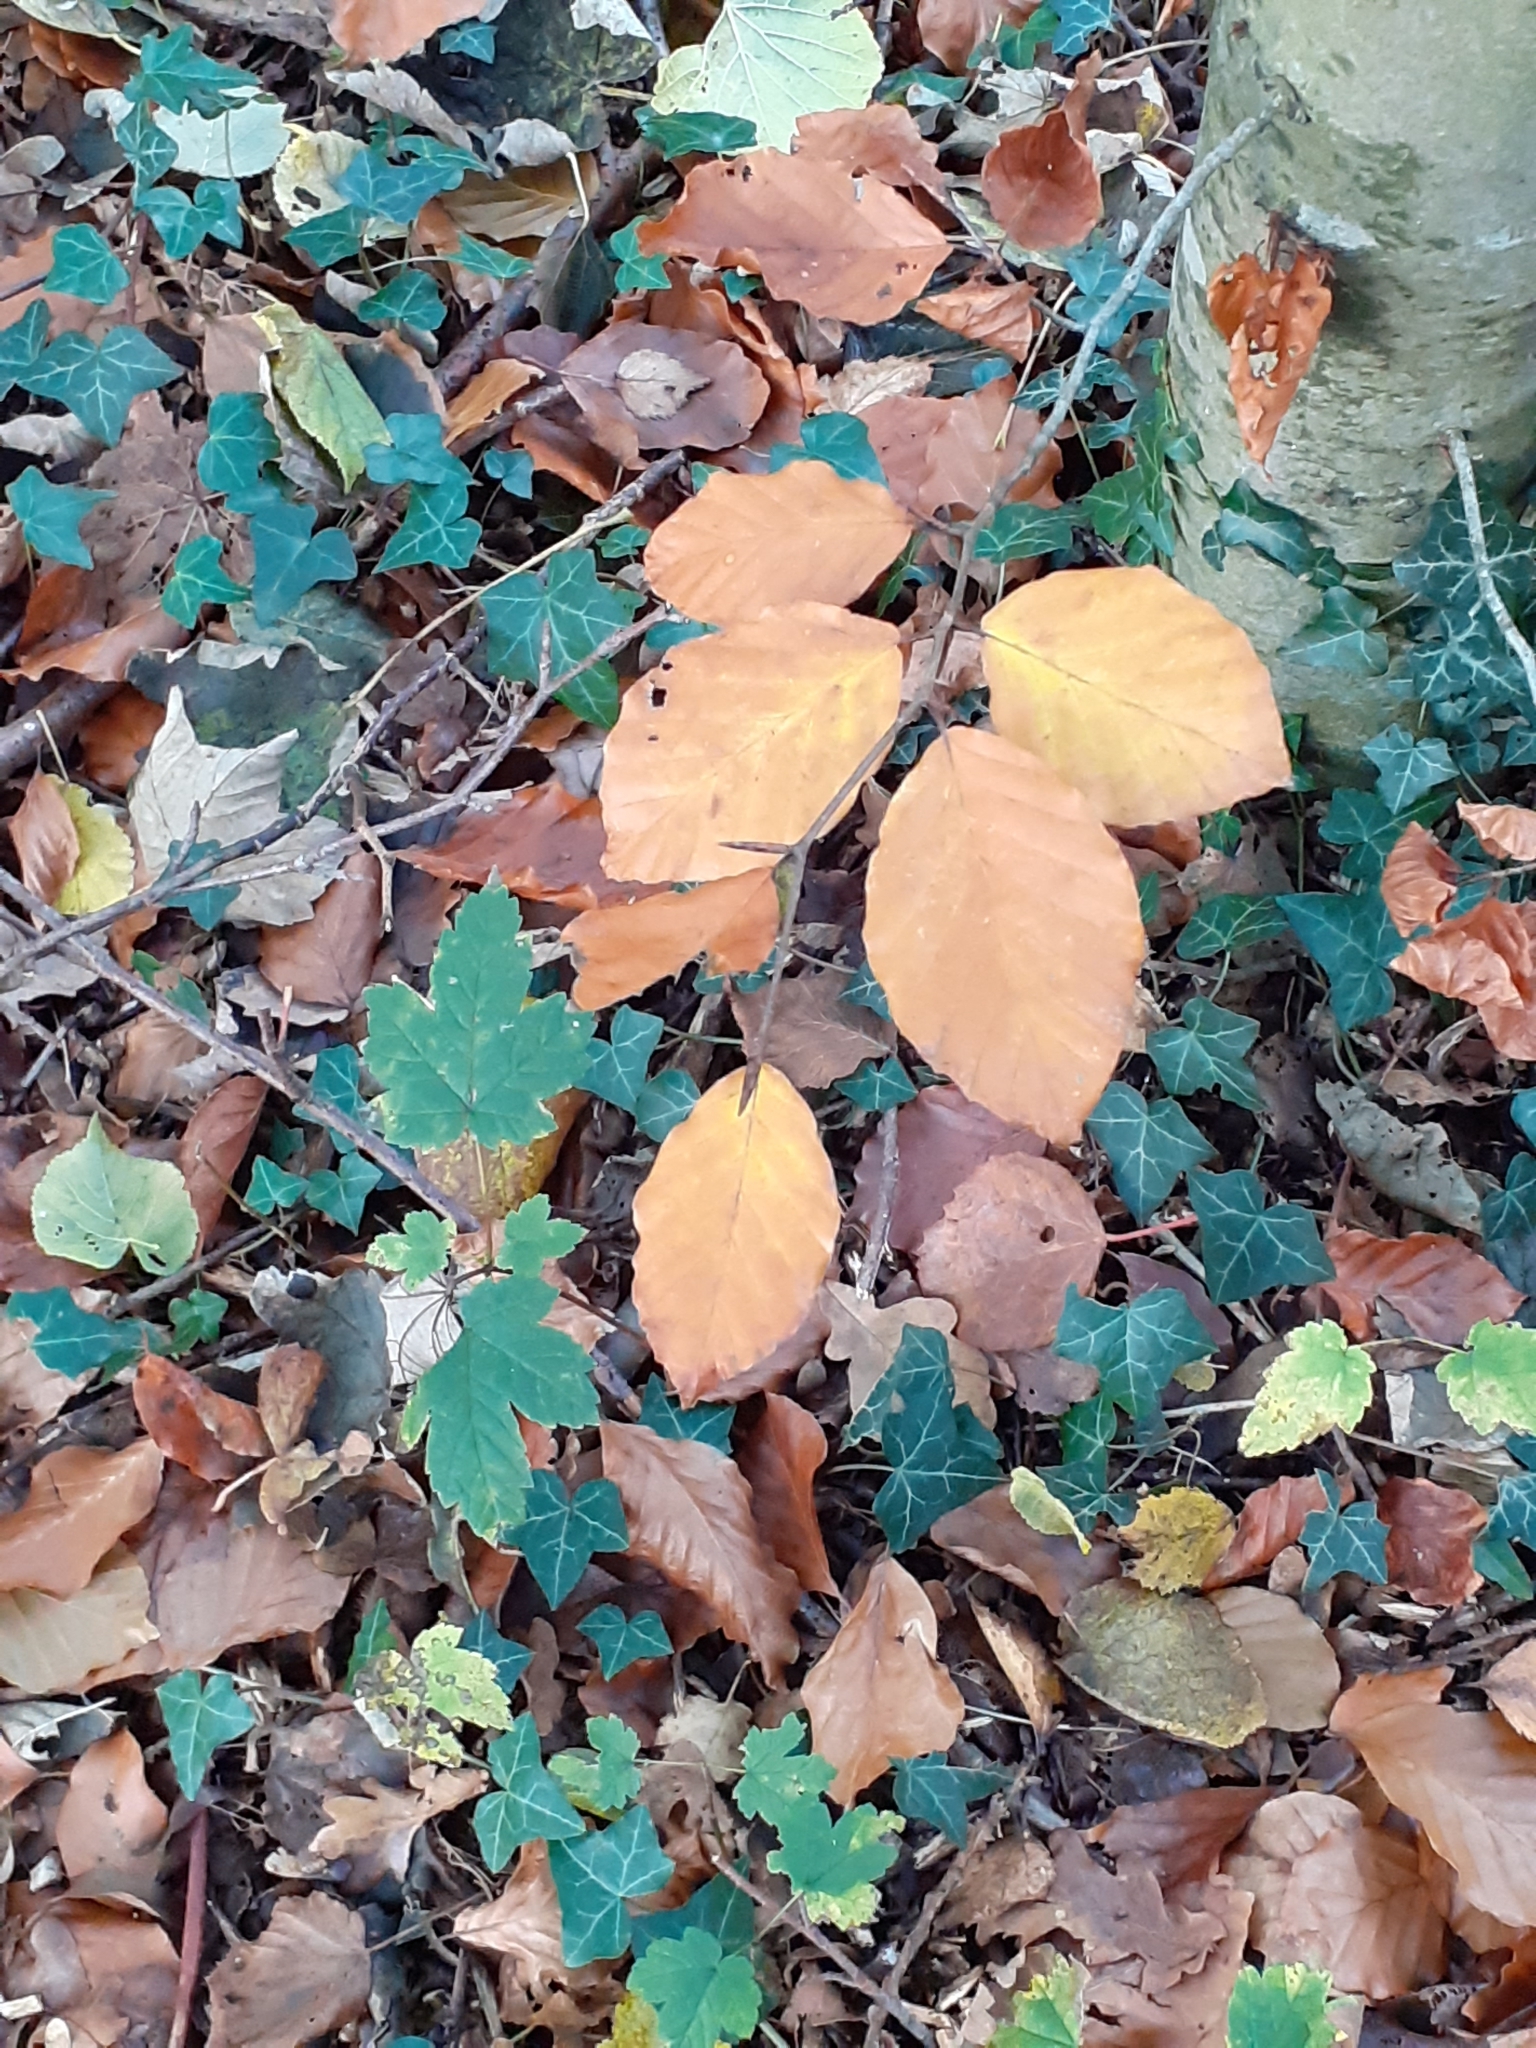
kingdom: Plantae
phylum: Tracheophyta
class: Magnoliopsida
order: Fagales
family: Fagaceae
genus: Fagus
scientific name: Fagus sylvatica
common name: Beech
